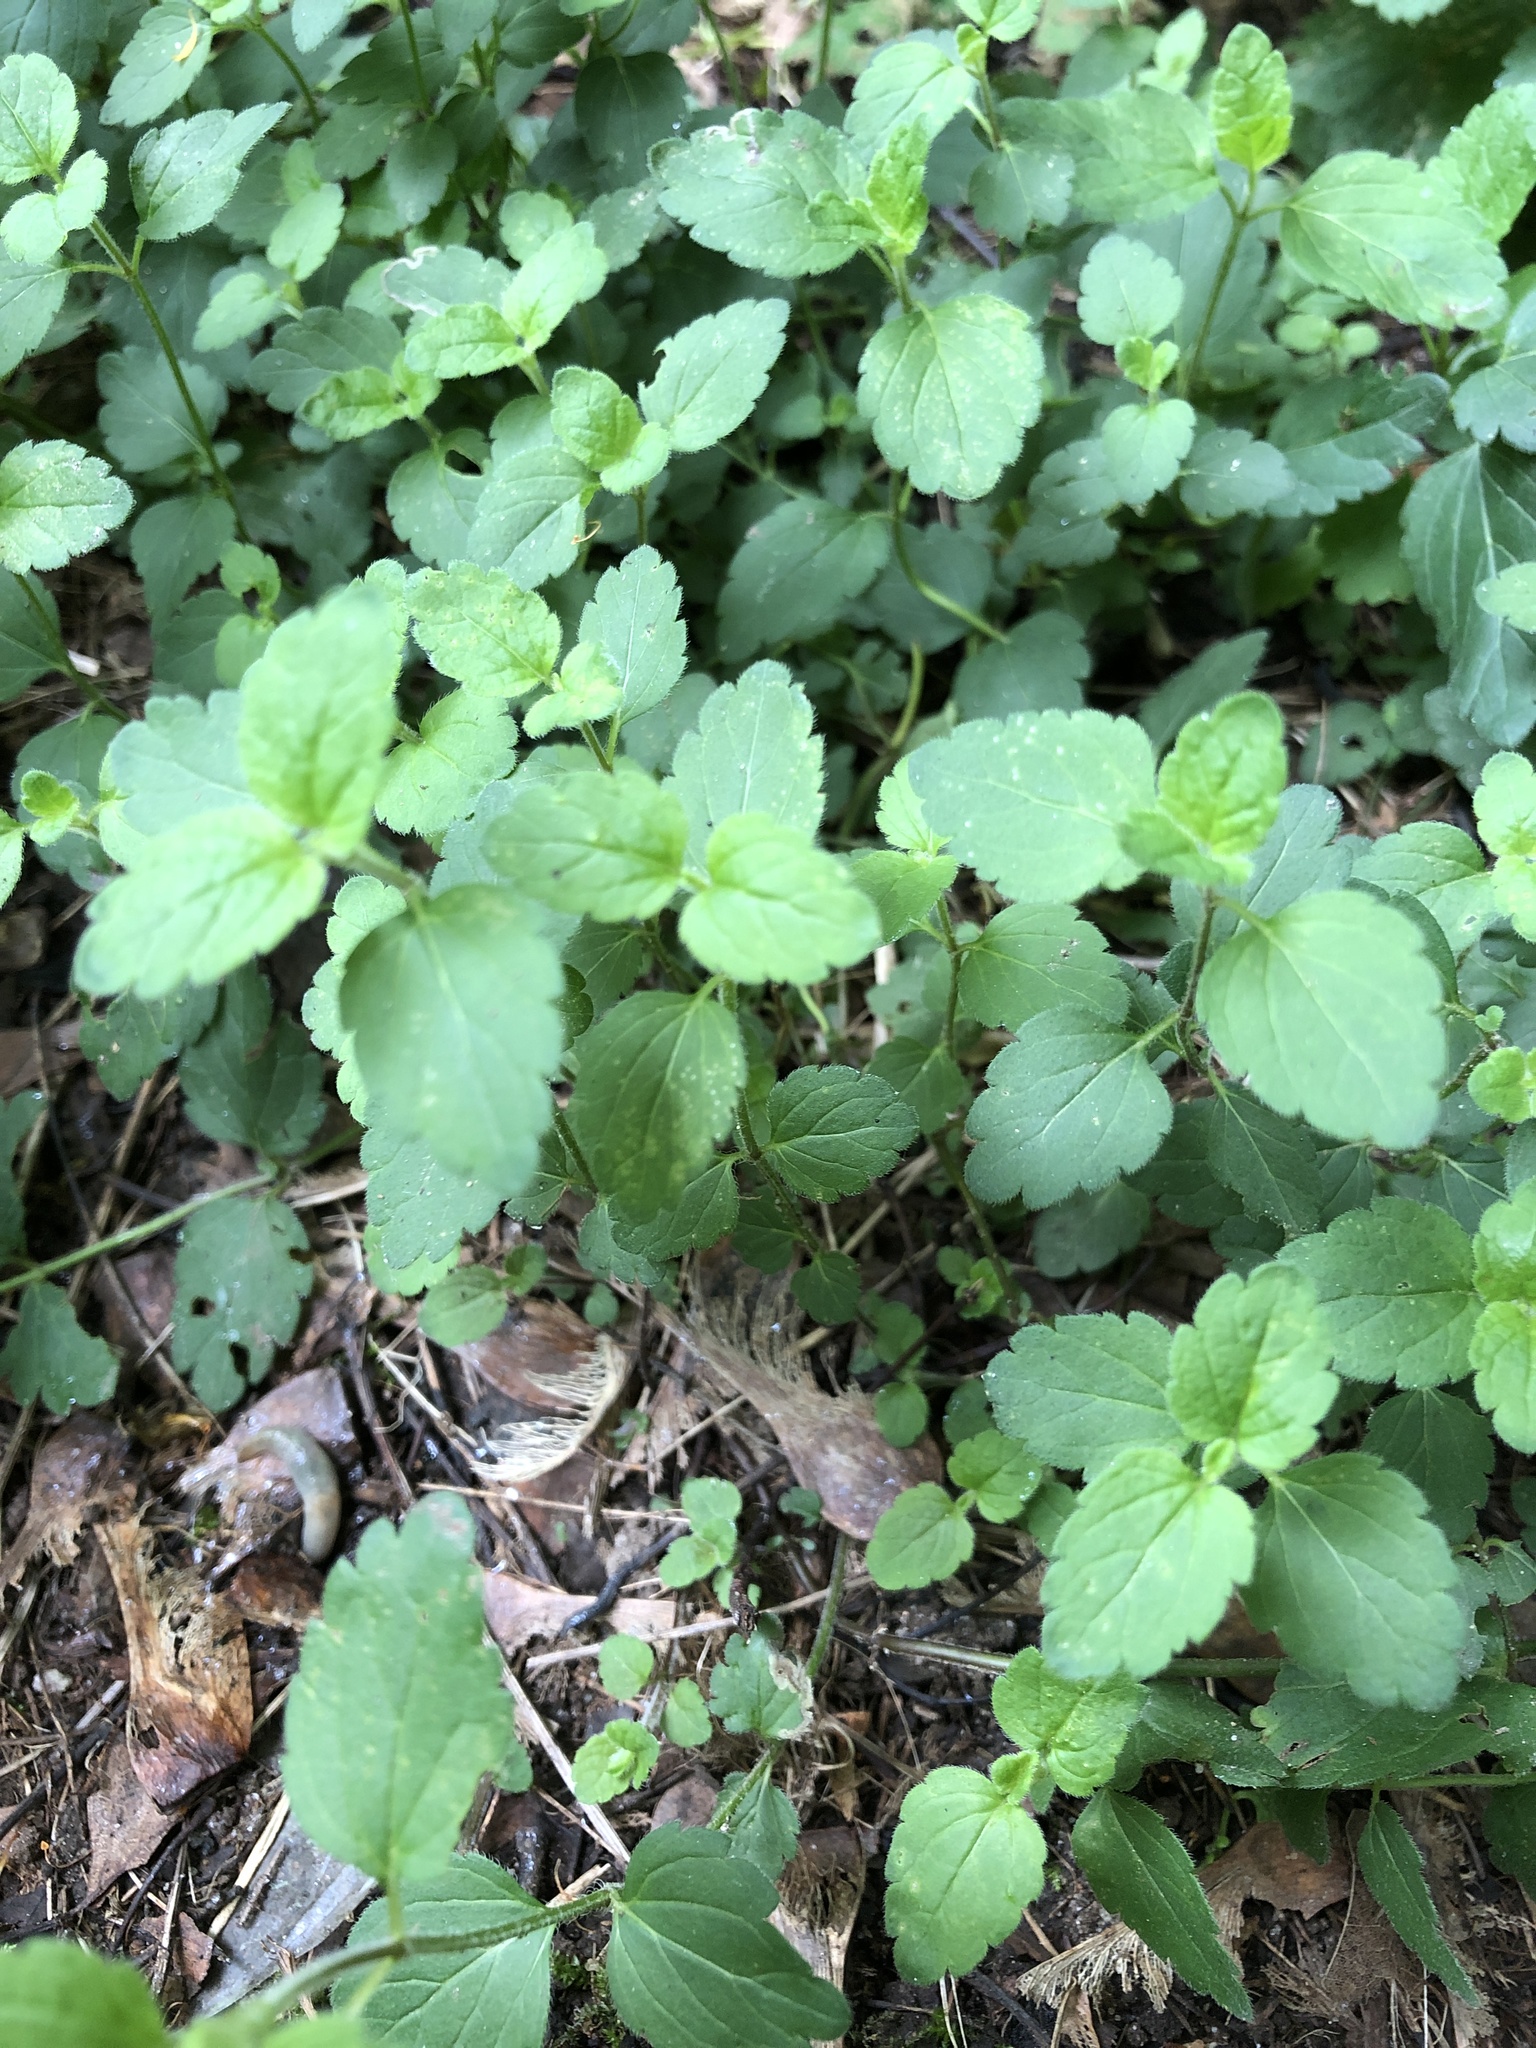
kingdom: Plantae
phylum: Tracheophyta
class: Magnoliopsida
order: Lamiales
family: Plantaginaceae
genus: Veronica
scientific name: Veronica chamaedrys
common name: Germander speedwell
